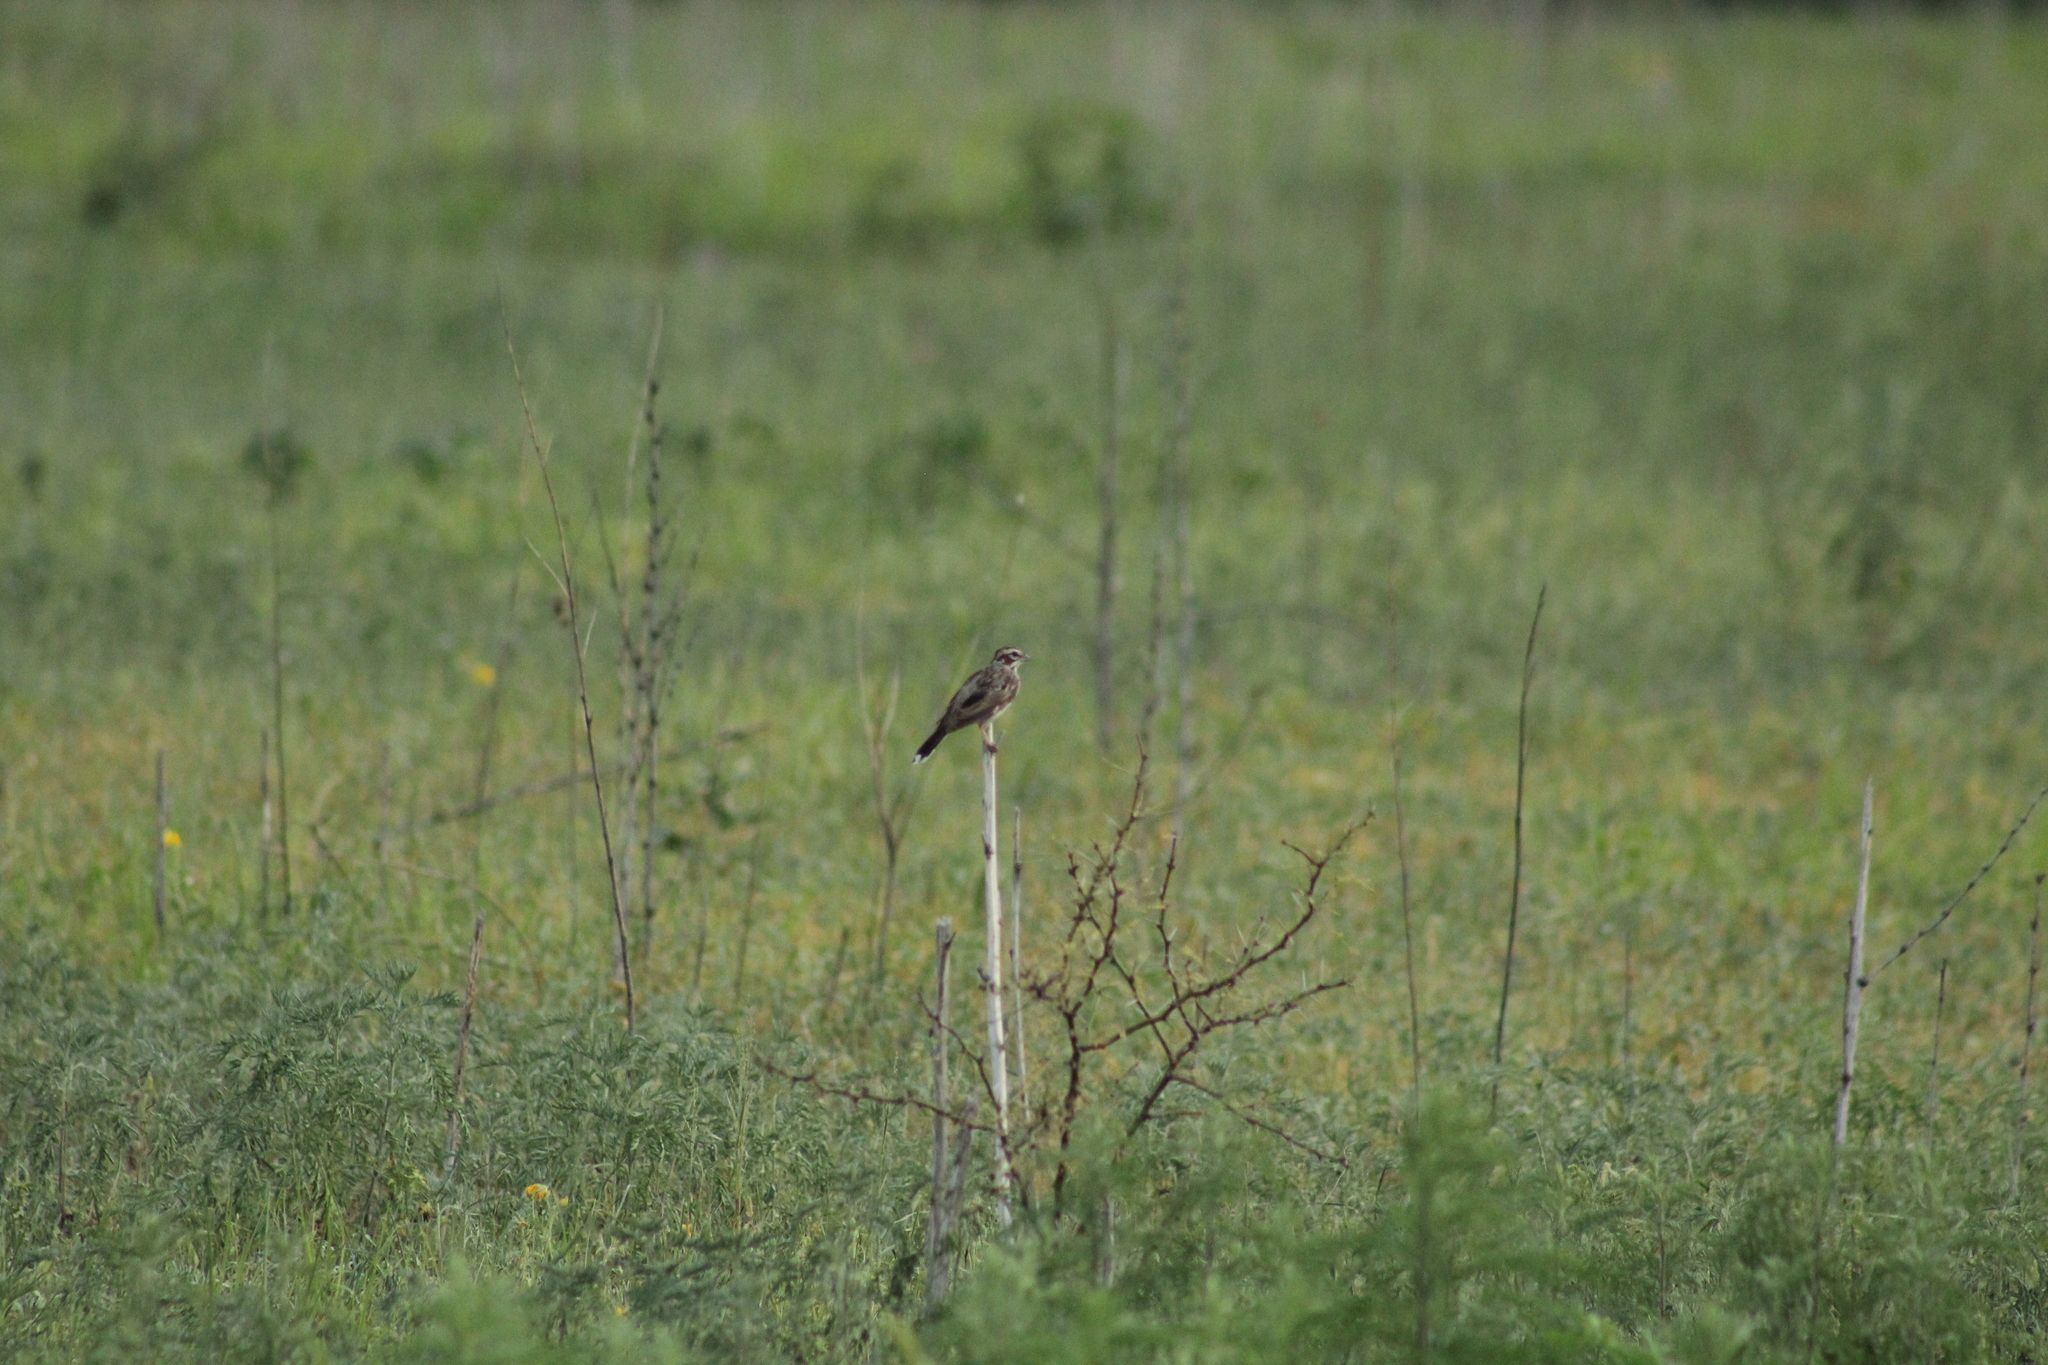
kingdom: Animalia
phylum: Chordata
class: Aves
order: Passeriformes
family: Passerellidae
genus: Chondestes
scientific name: Chondestes grammacus
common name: Lark sparrow
